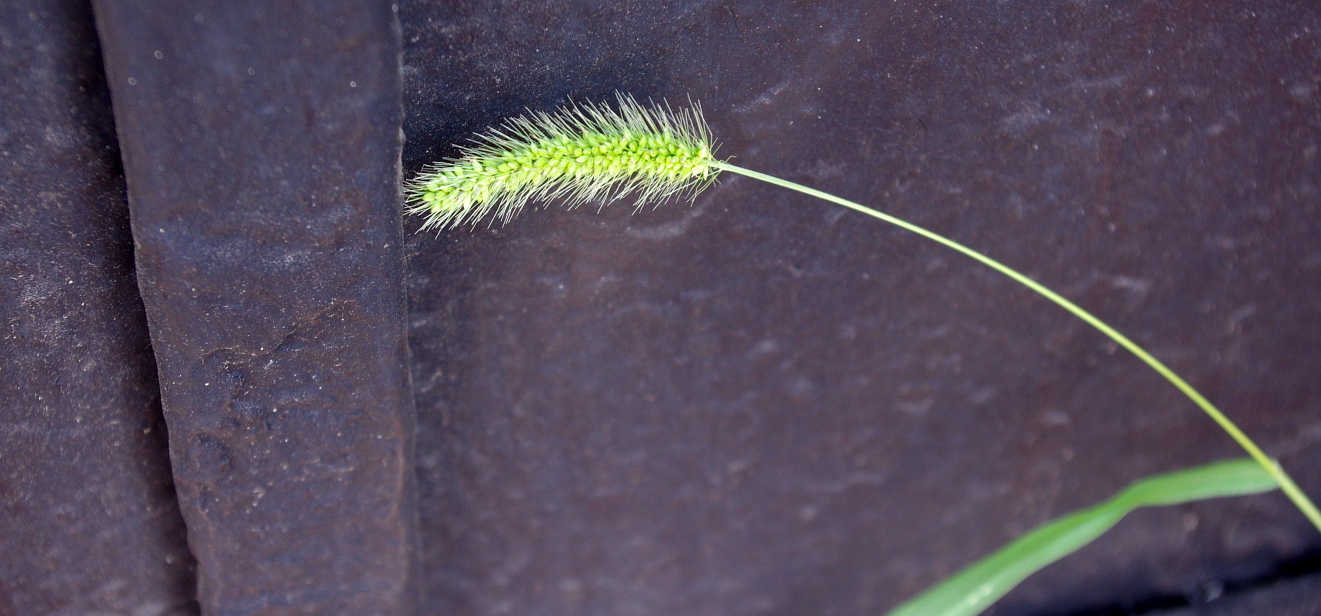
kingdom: Plantae
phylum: Tracheophyta
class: Liliopsida
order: Poales
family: Poaceae
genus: Setaria
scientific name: Setaria viridis
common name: Green bristlegrass
